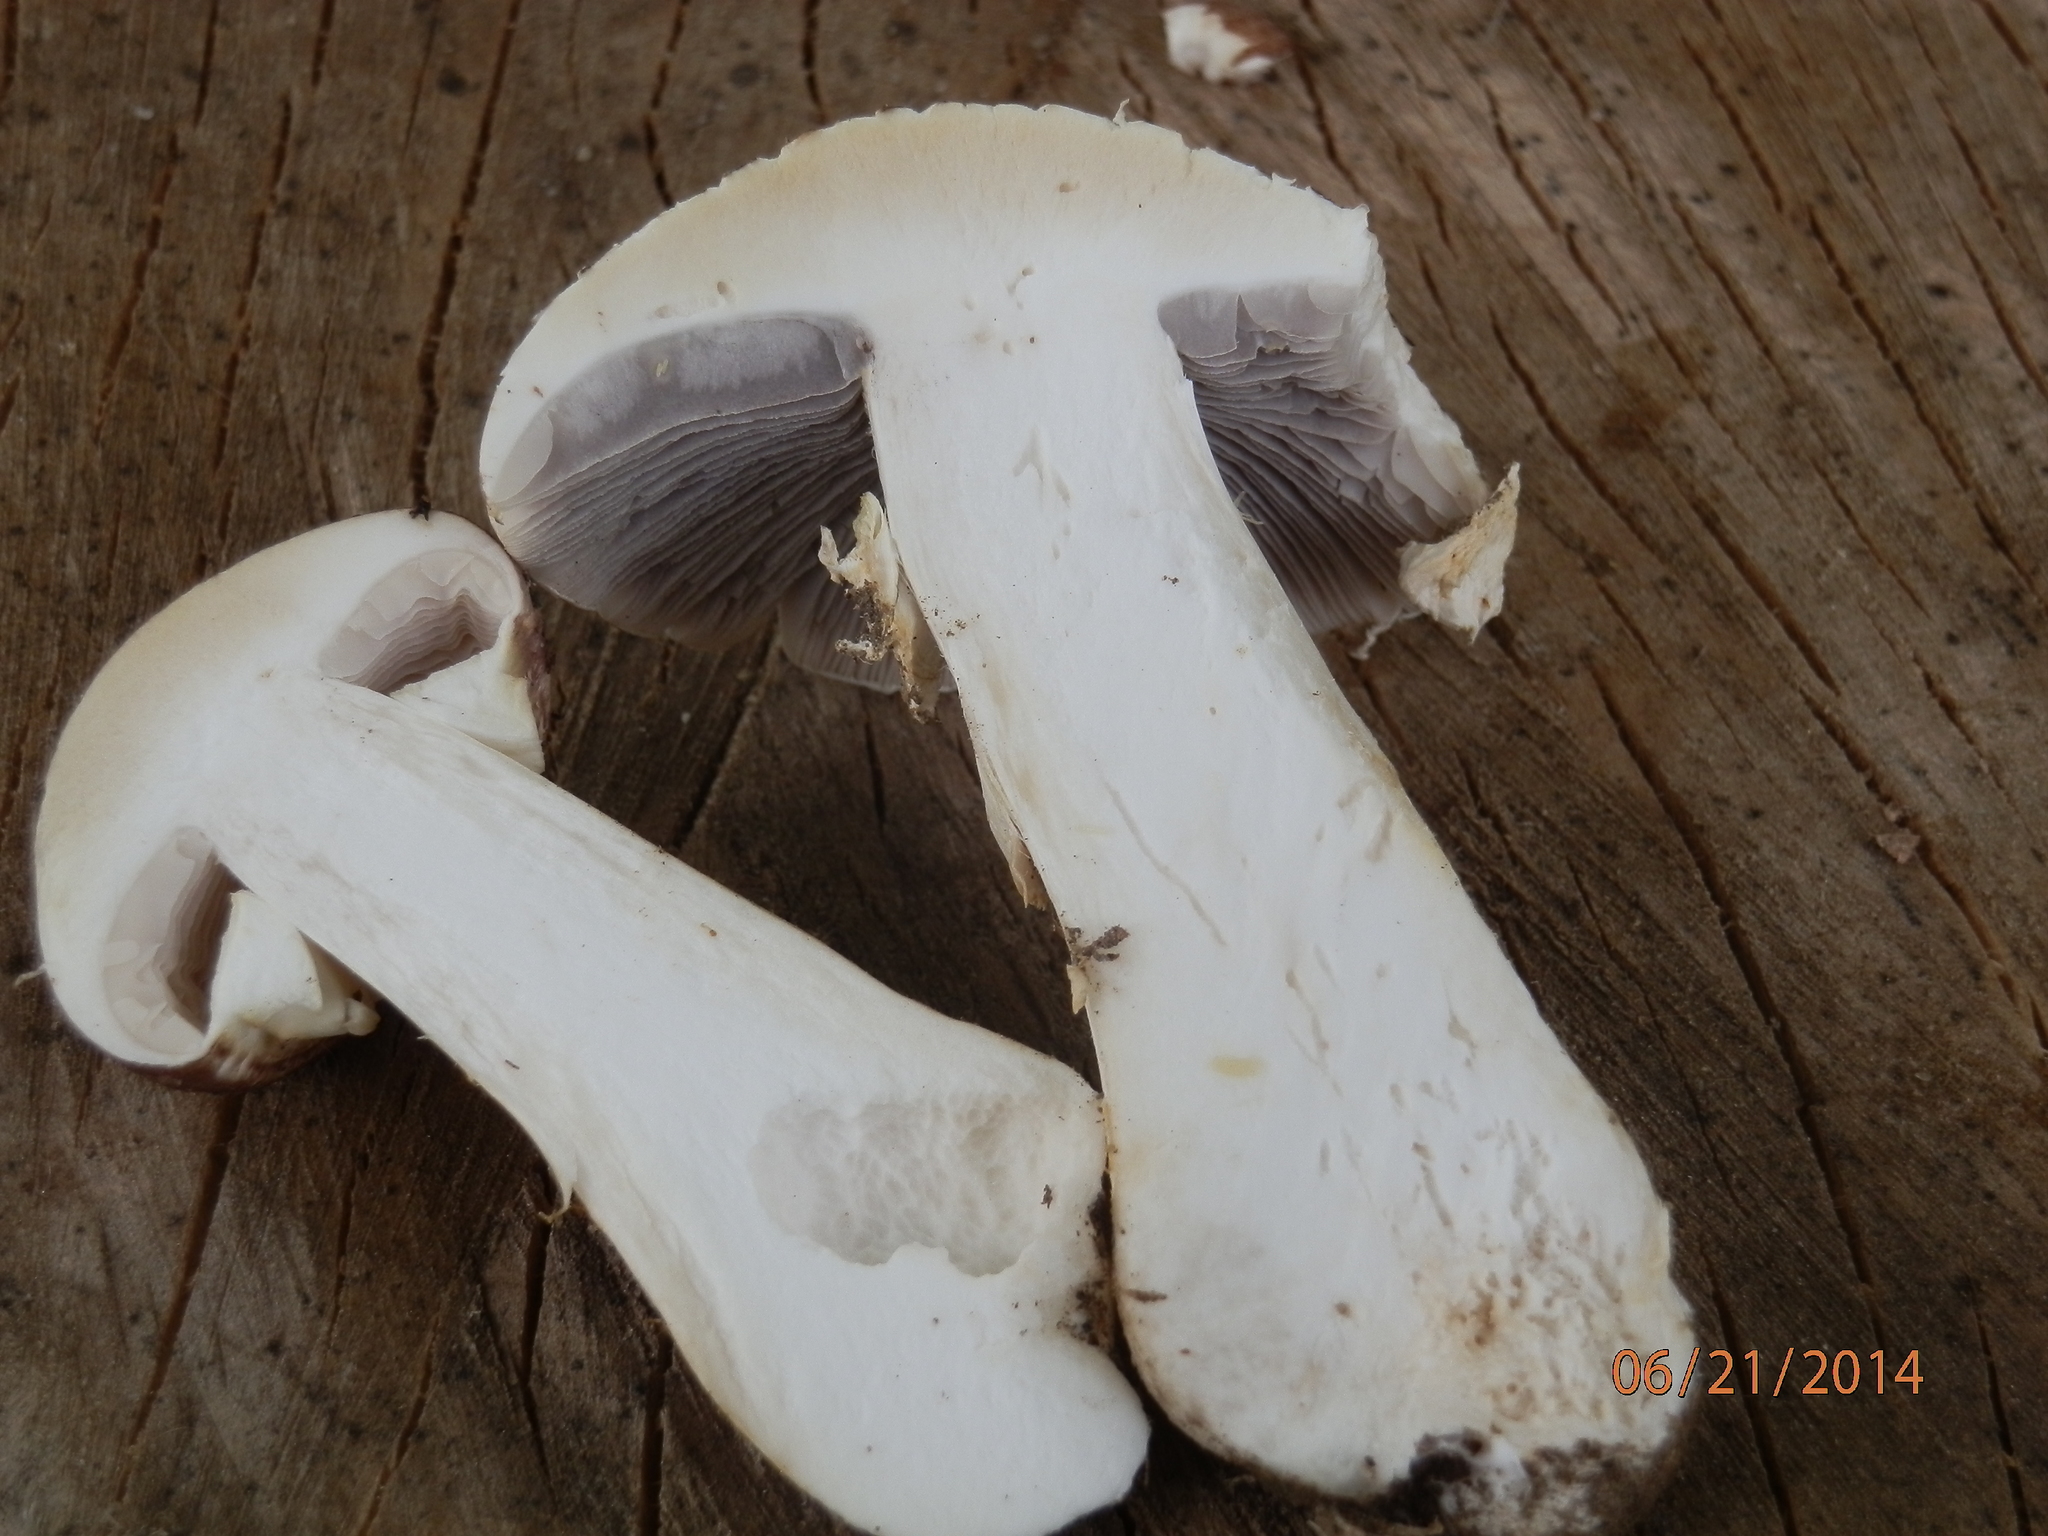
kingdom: Fungi
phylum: Basidiomycota
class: Agaricomycetes
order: Agaricales
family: Strophariaceae
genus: Stropharia
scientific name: Stropharia rugosoannulata
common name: Wine roundhead
